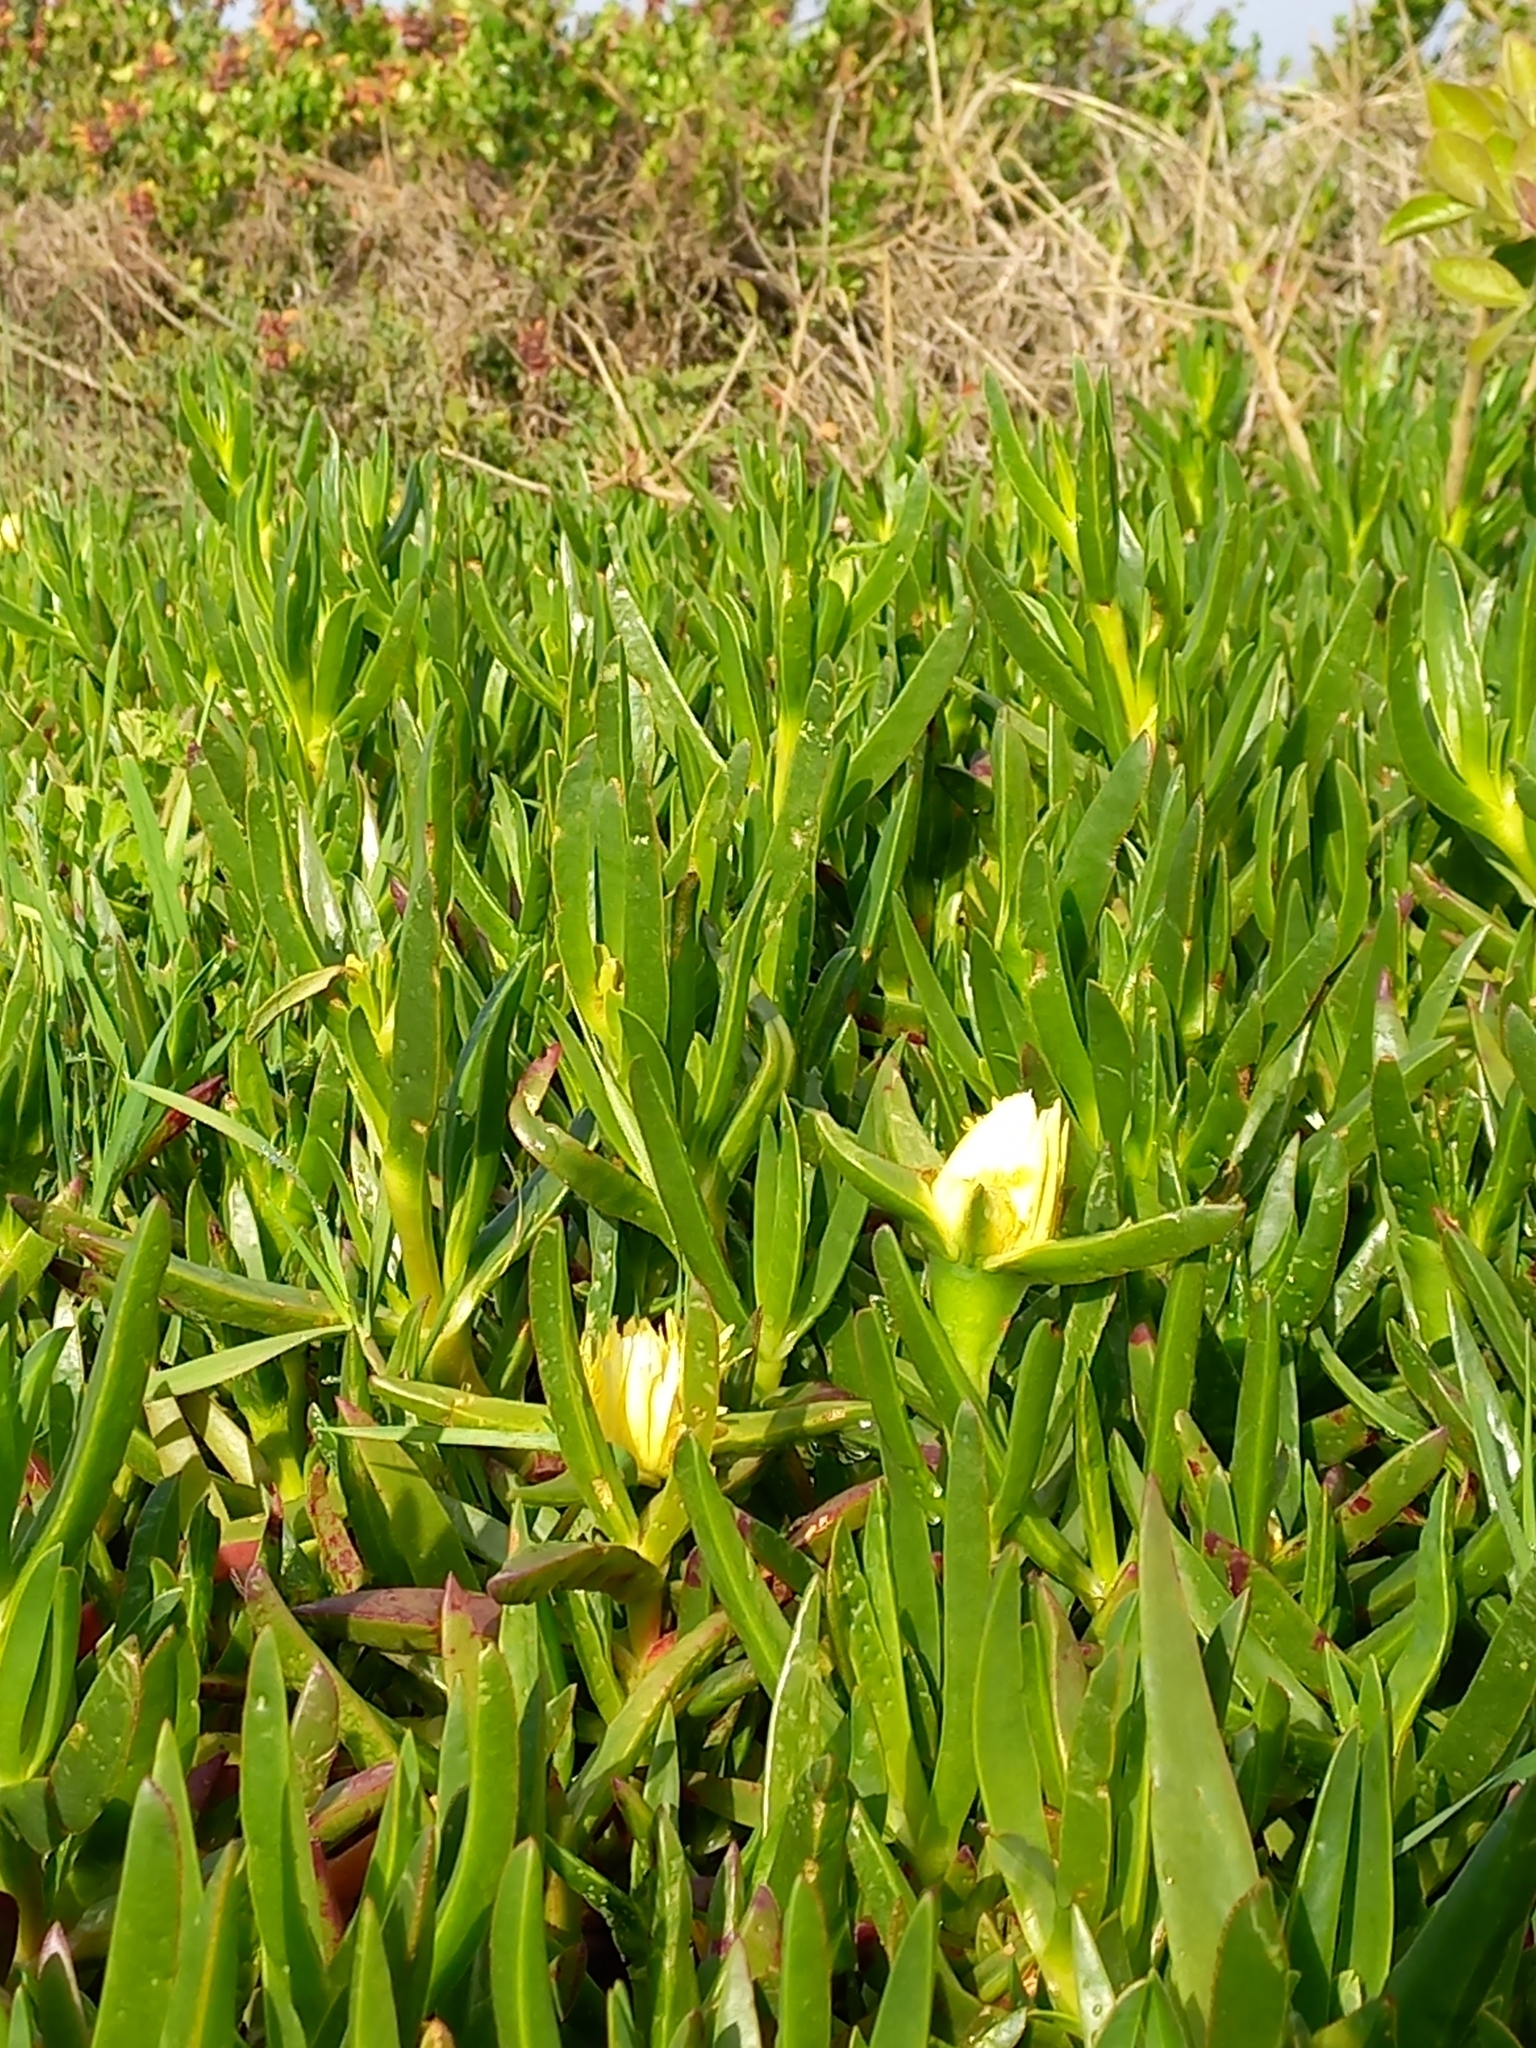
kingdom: Plantae
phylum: Tracheophyta
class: Magnoliopsida
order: Caryophyllales
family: Aizoaceae
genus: Carpobrotus
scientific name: Carpobrotus edulis
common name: Hottentot-fig
